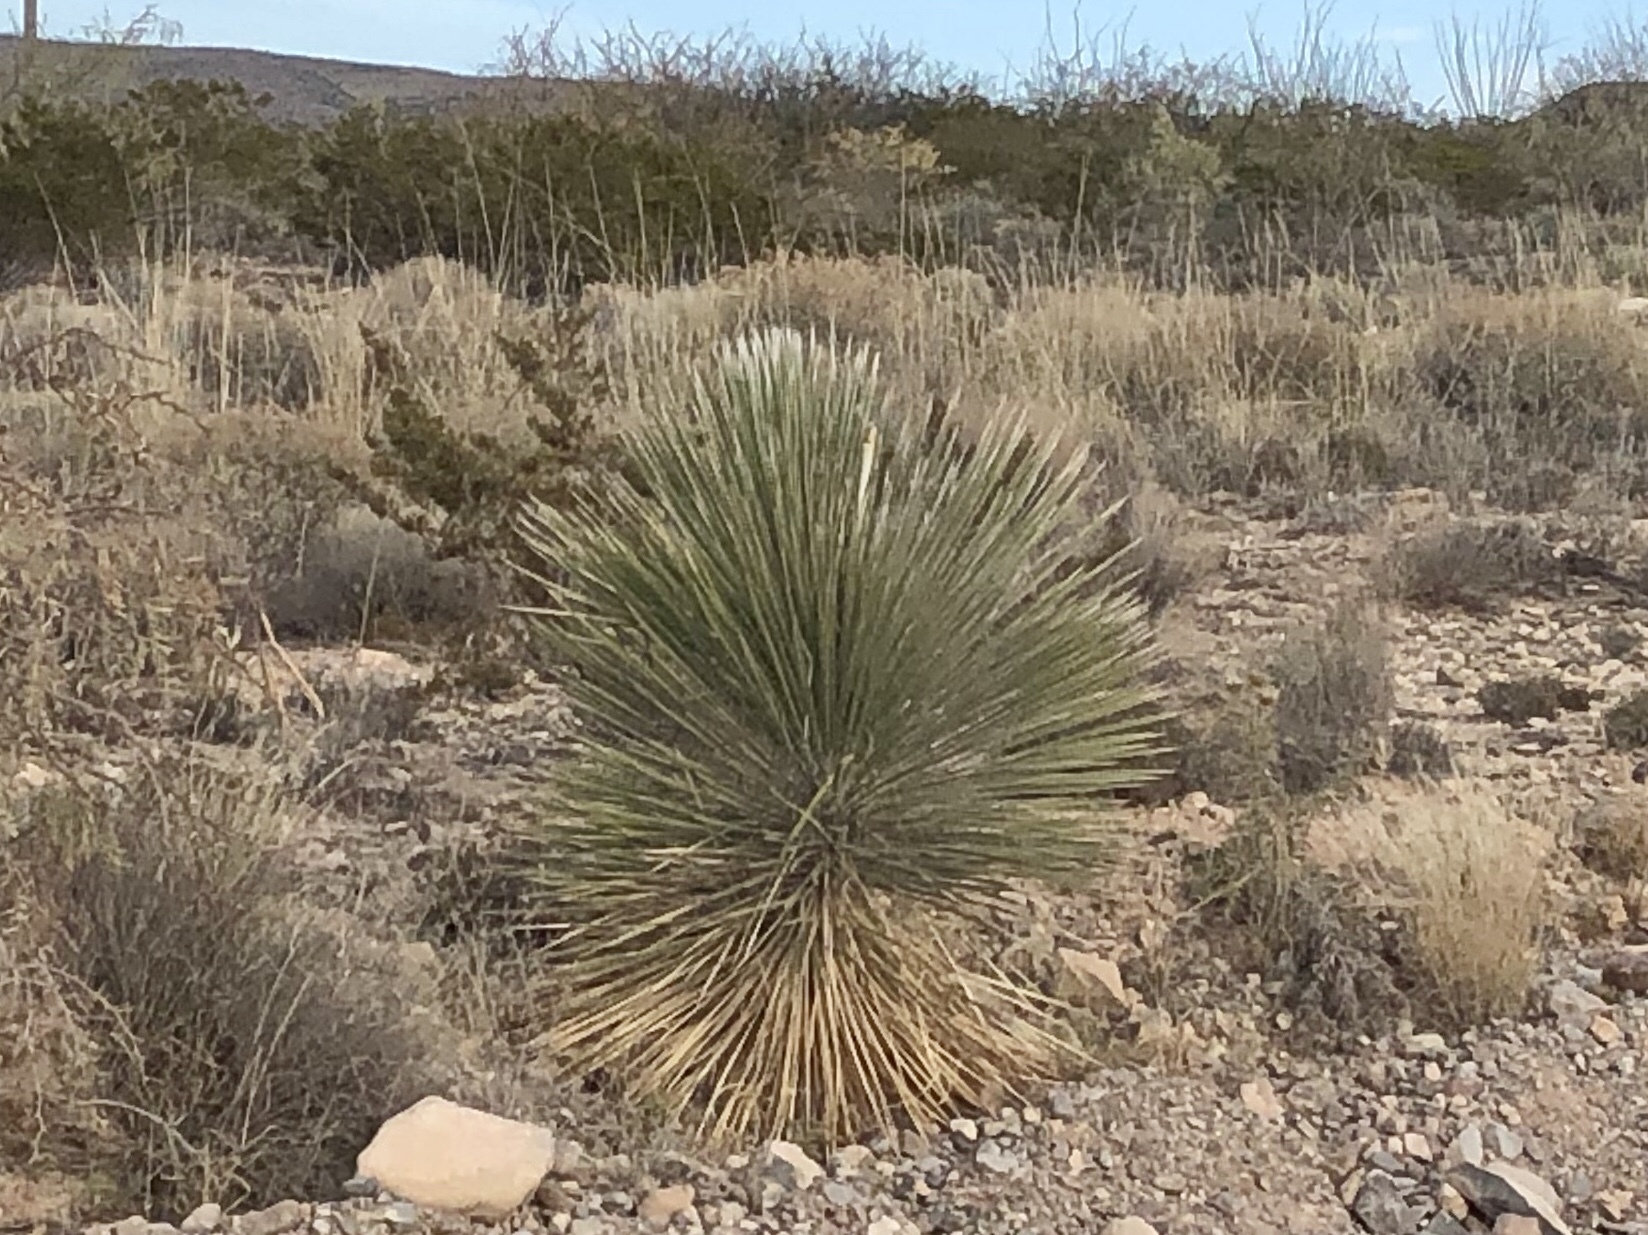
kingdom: Plantae
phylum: Tracheophyta
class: Liliopsida
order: Asparagales
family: Asparagaceae
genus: Yucca
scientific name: Yucca elata
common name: Palmella
